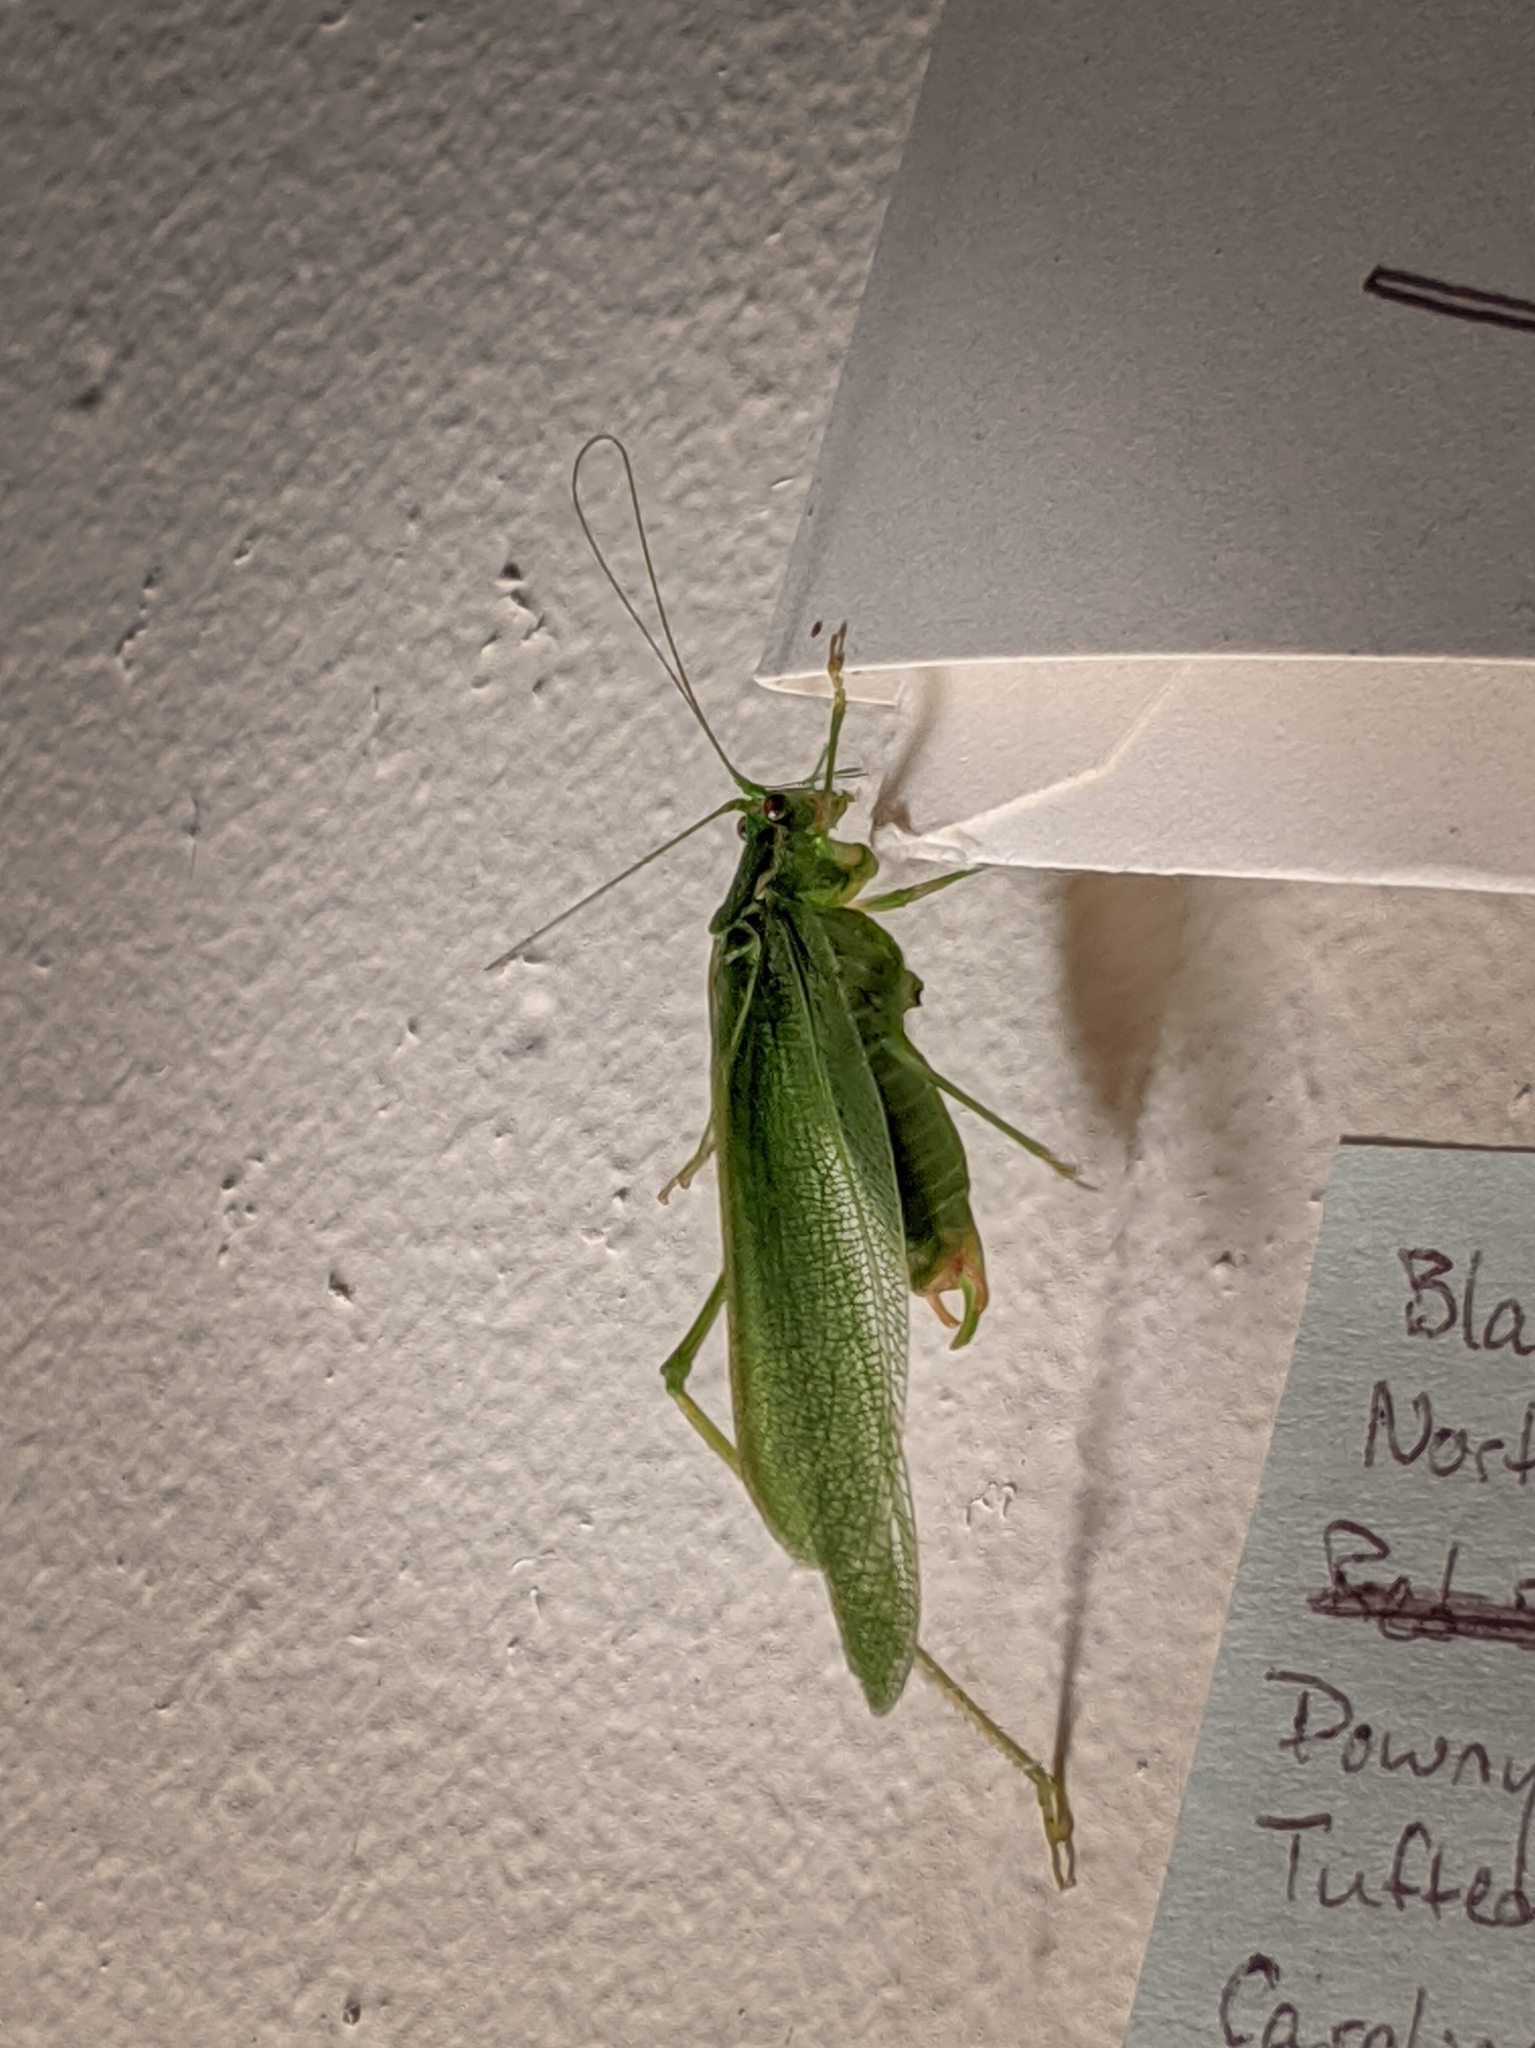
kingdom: Animalia
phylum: Arthropoda
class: Insecta
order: Orthoptera
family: Tettigoniidae
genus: Scudderia
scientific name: Scudderia septentrionalis
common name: Northern bush-katydid
